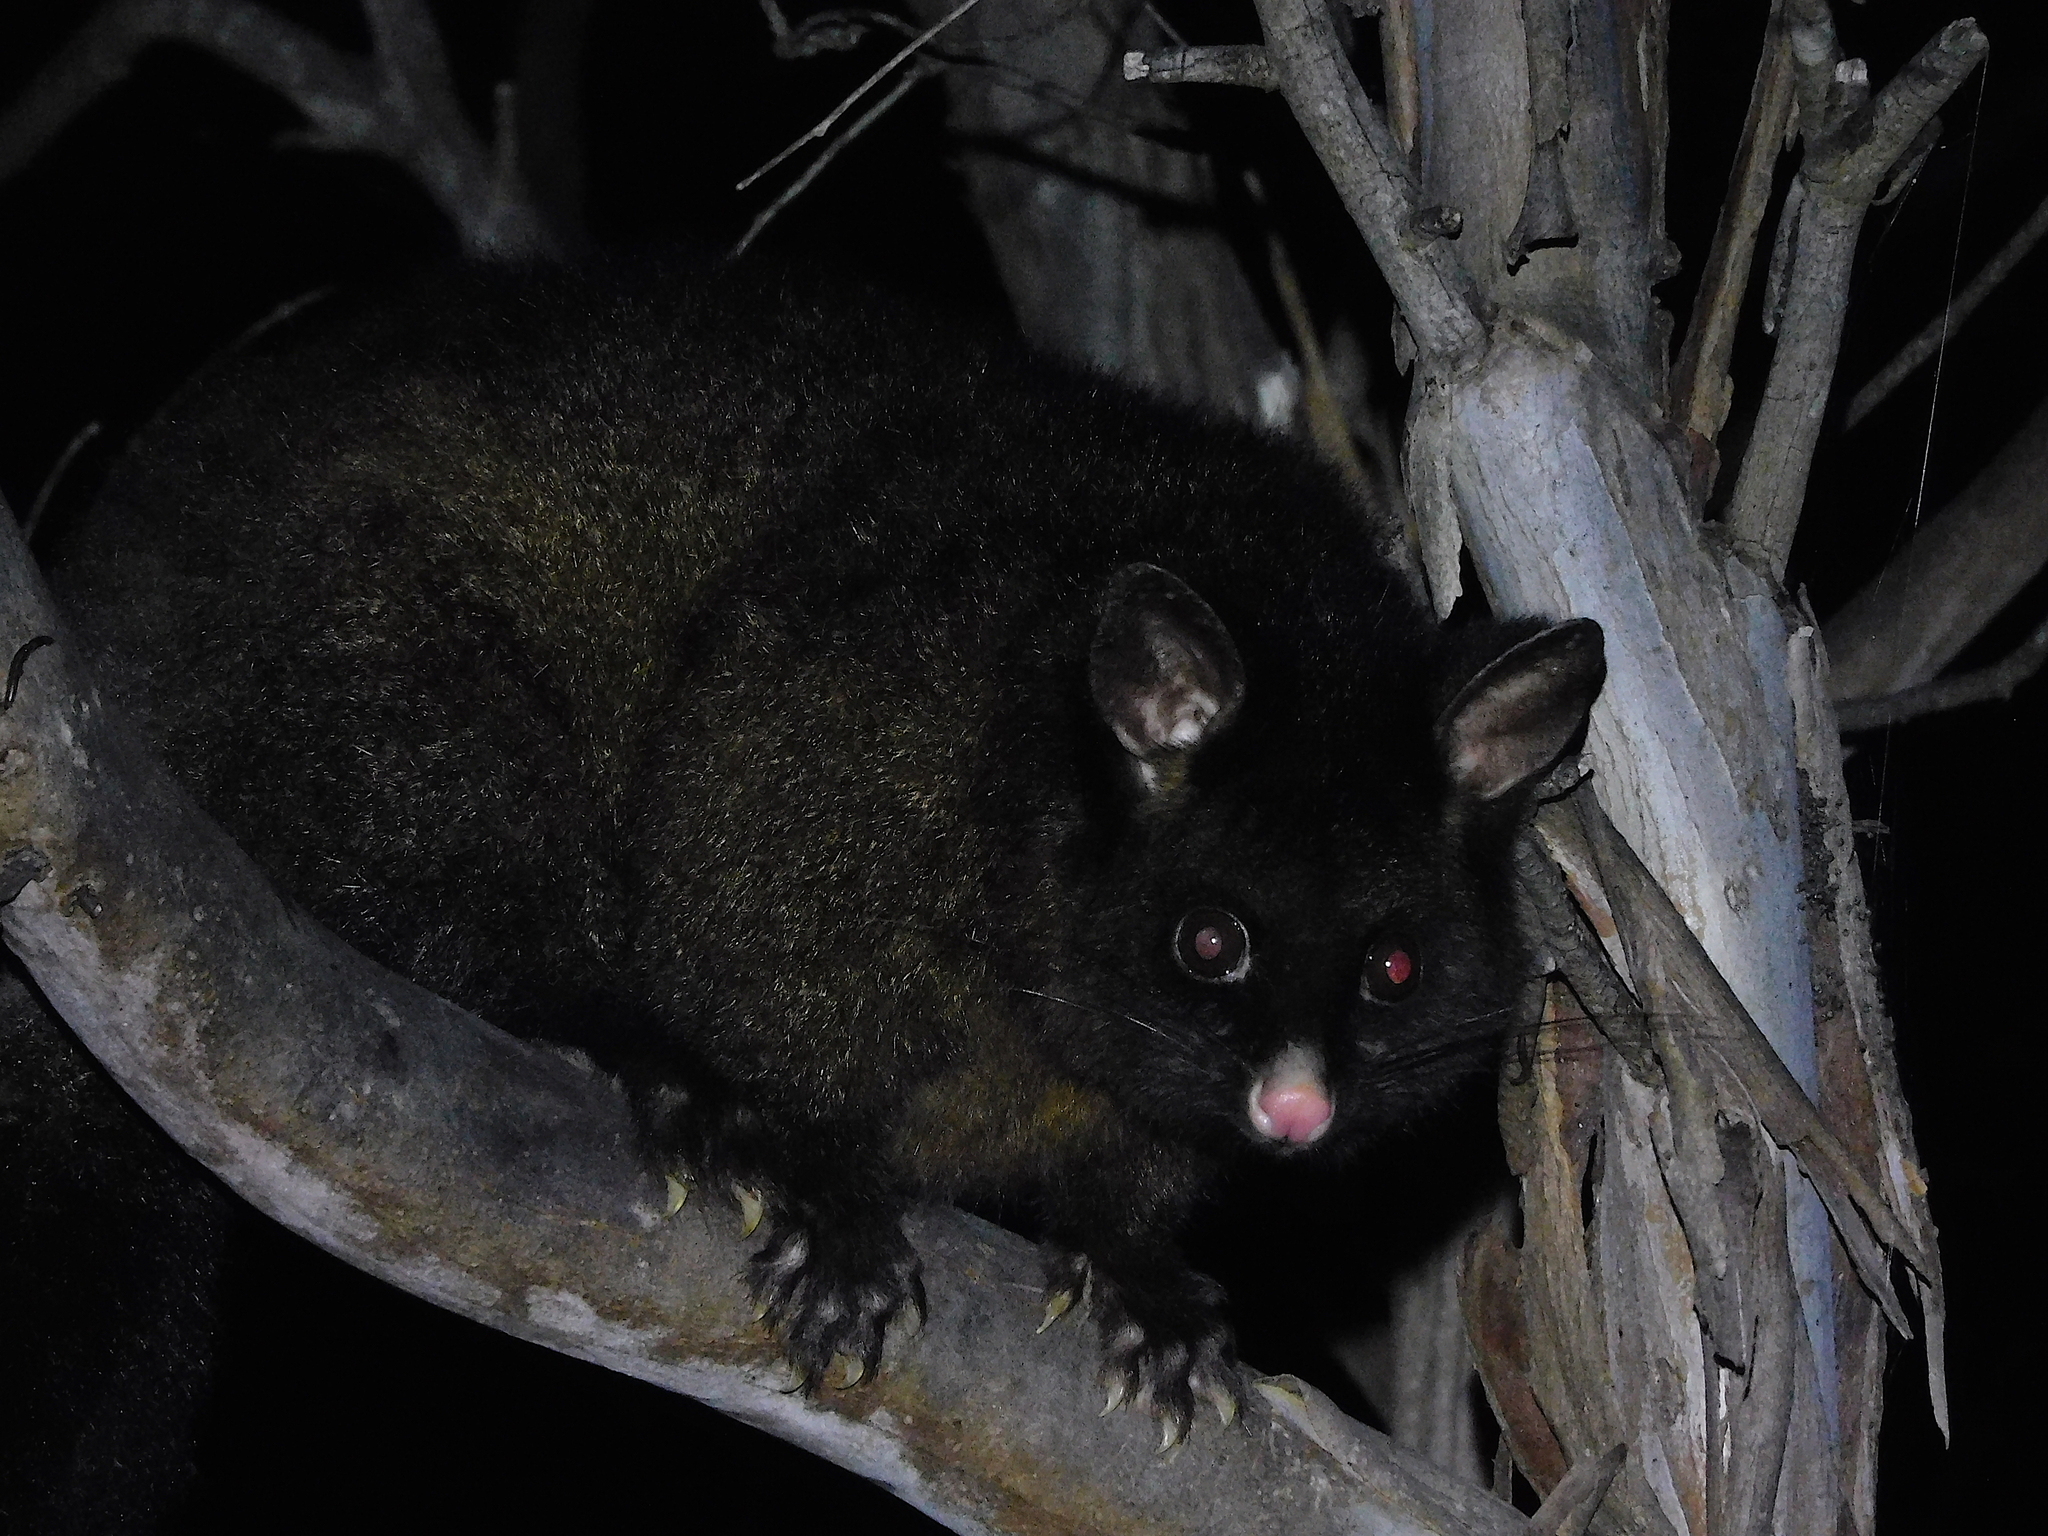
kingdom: Animalia
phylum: Chordata
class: Mammalia
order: Diprotodontia
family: Phalangeridae
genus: Trichosurus
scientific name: Trichosurus vulpecula
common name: Common brushtail
